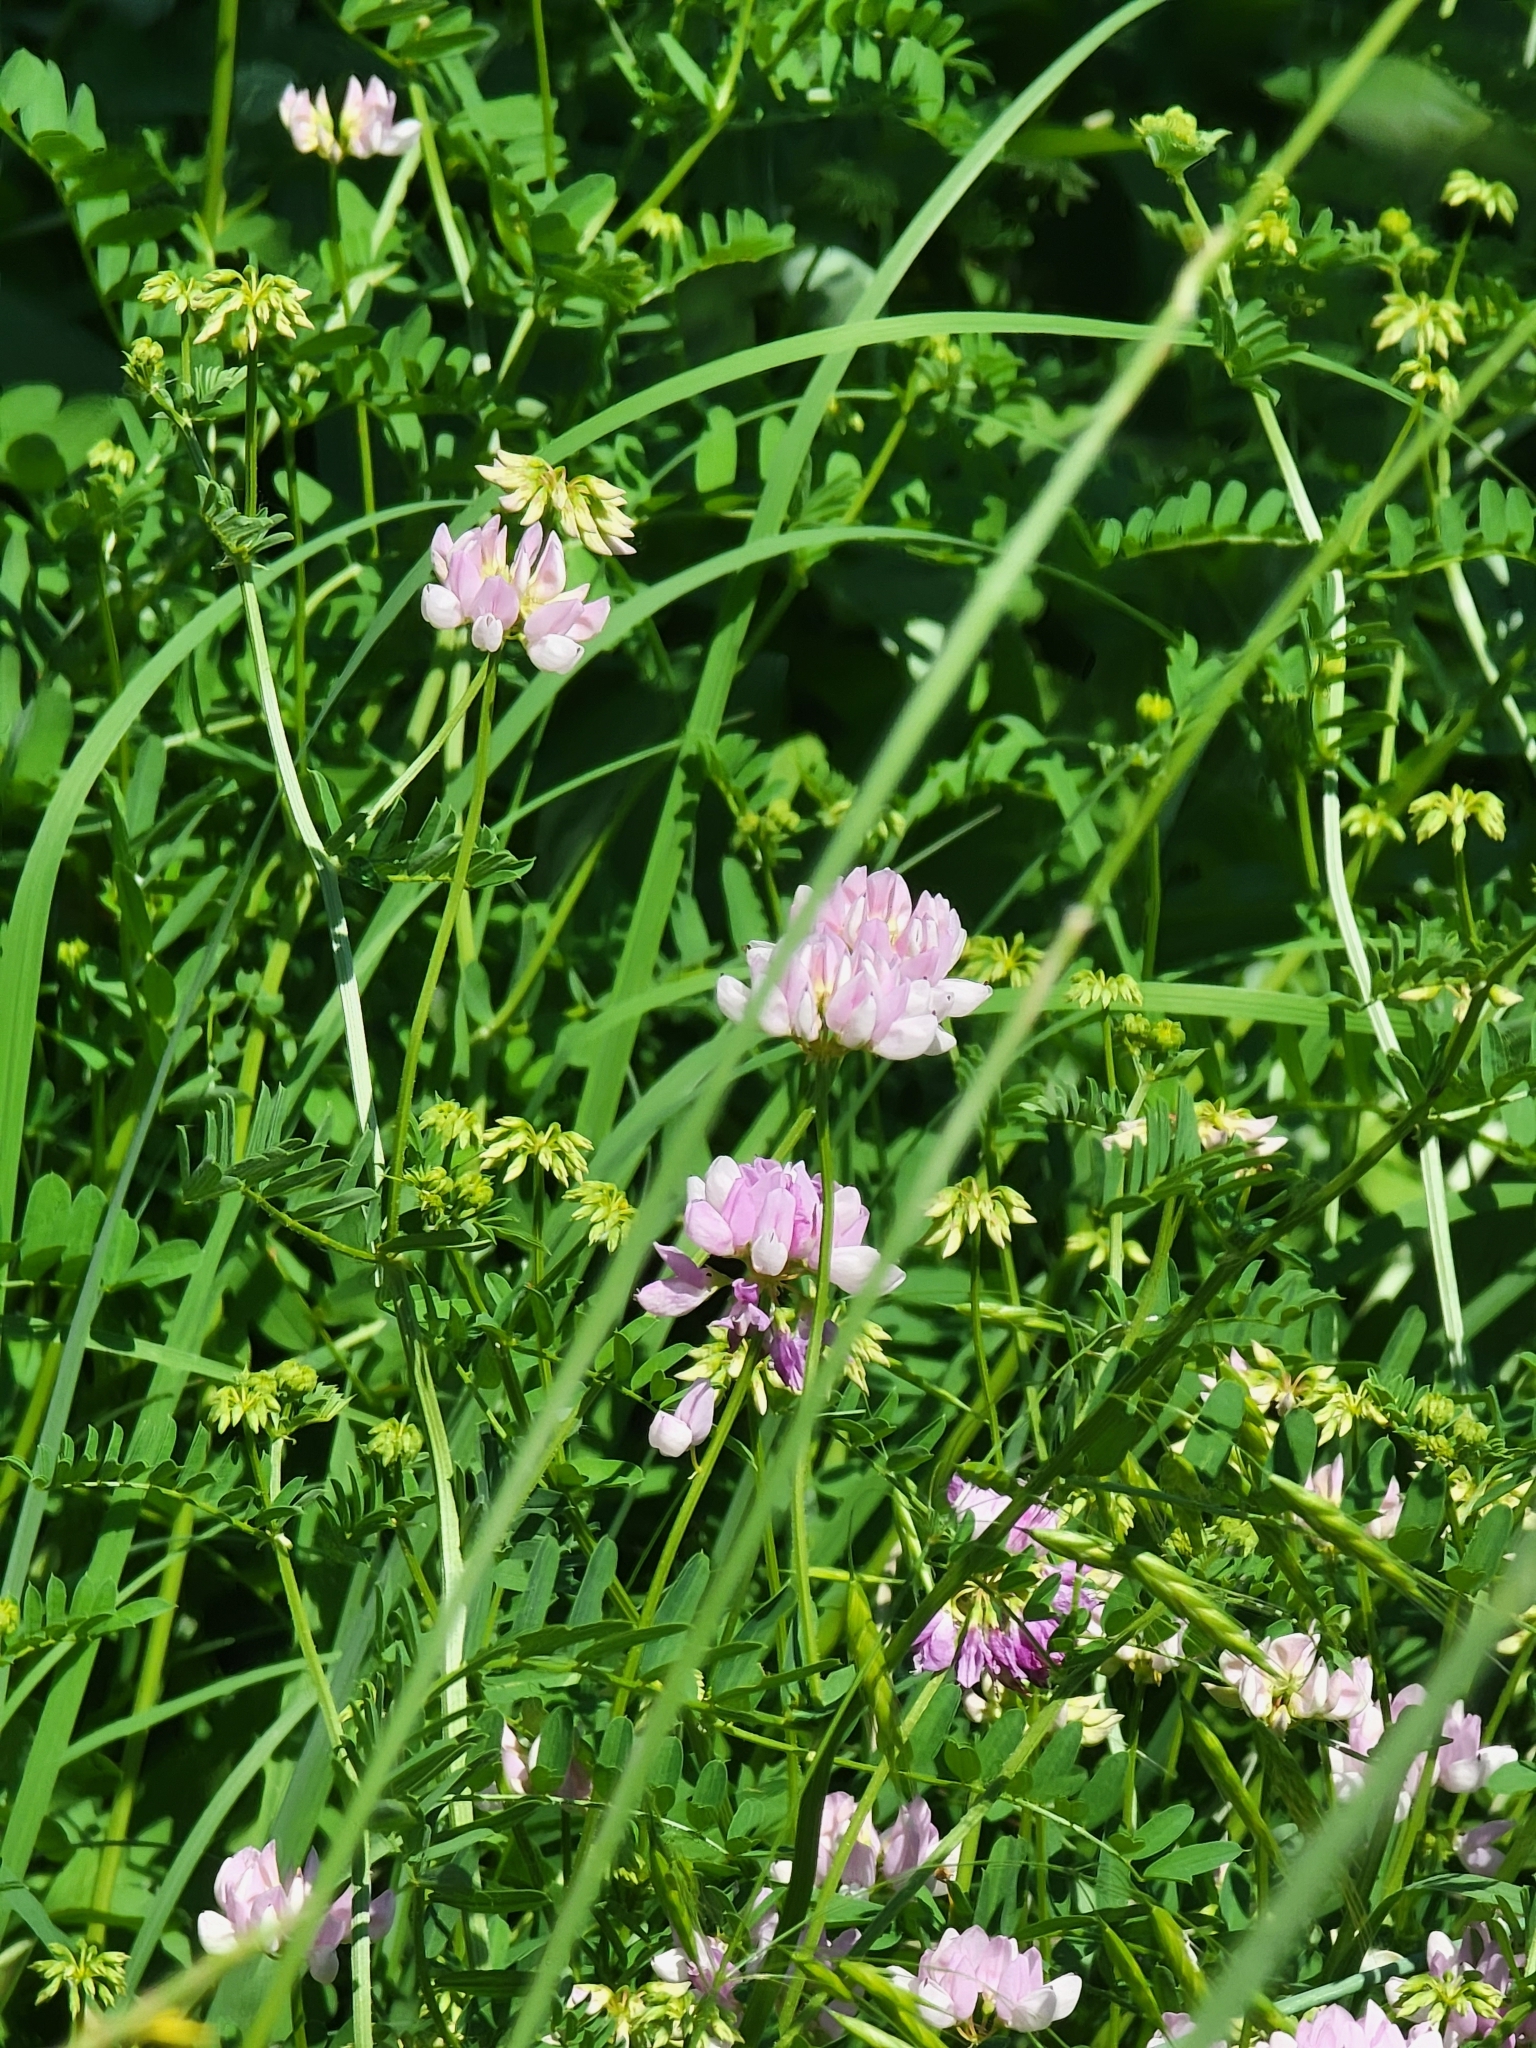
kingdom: Plantae
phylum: Tracheophyta
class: Magnoliopsida
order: Fabales
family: Fabaceae
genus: Coronilla
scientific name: Coronilla varia
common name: Crownvetch
